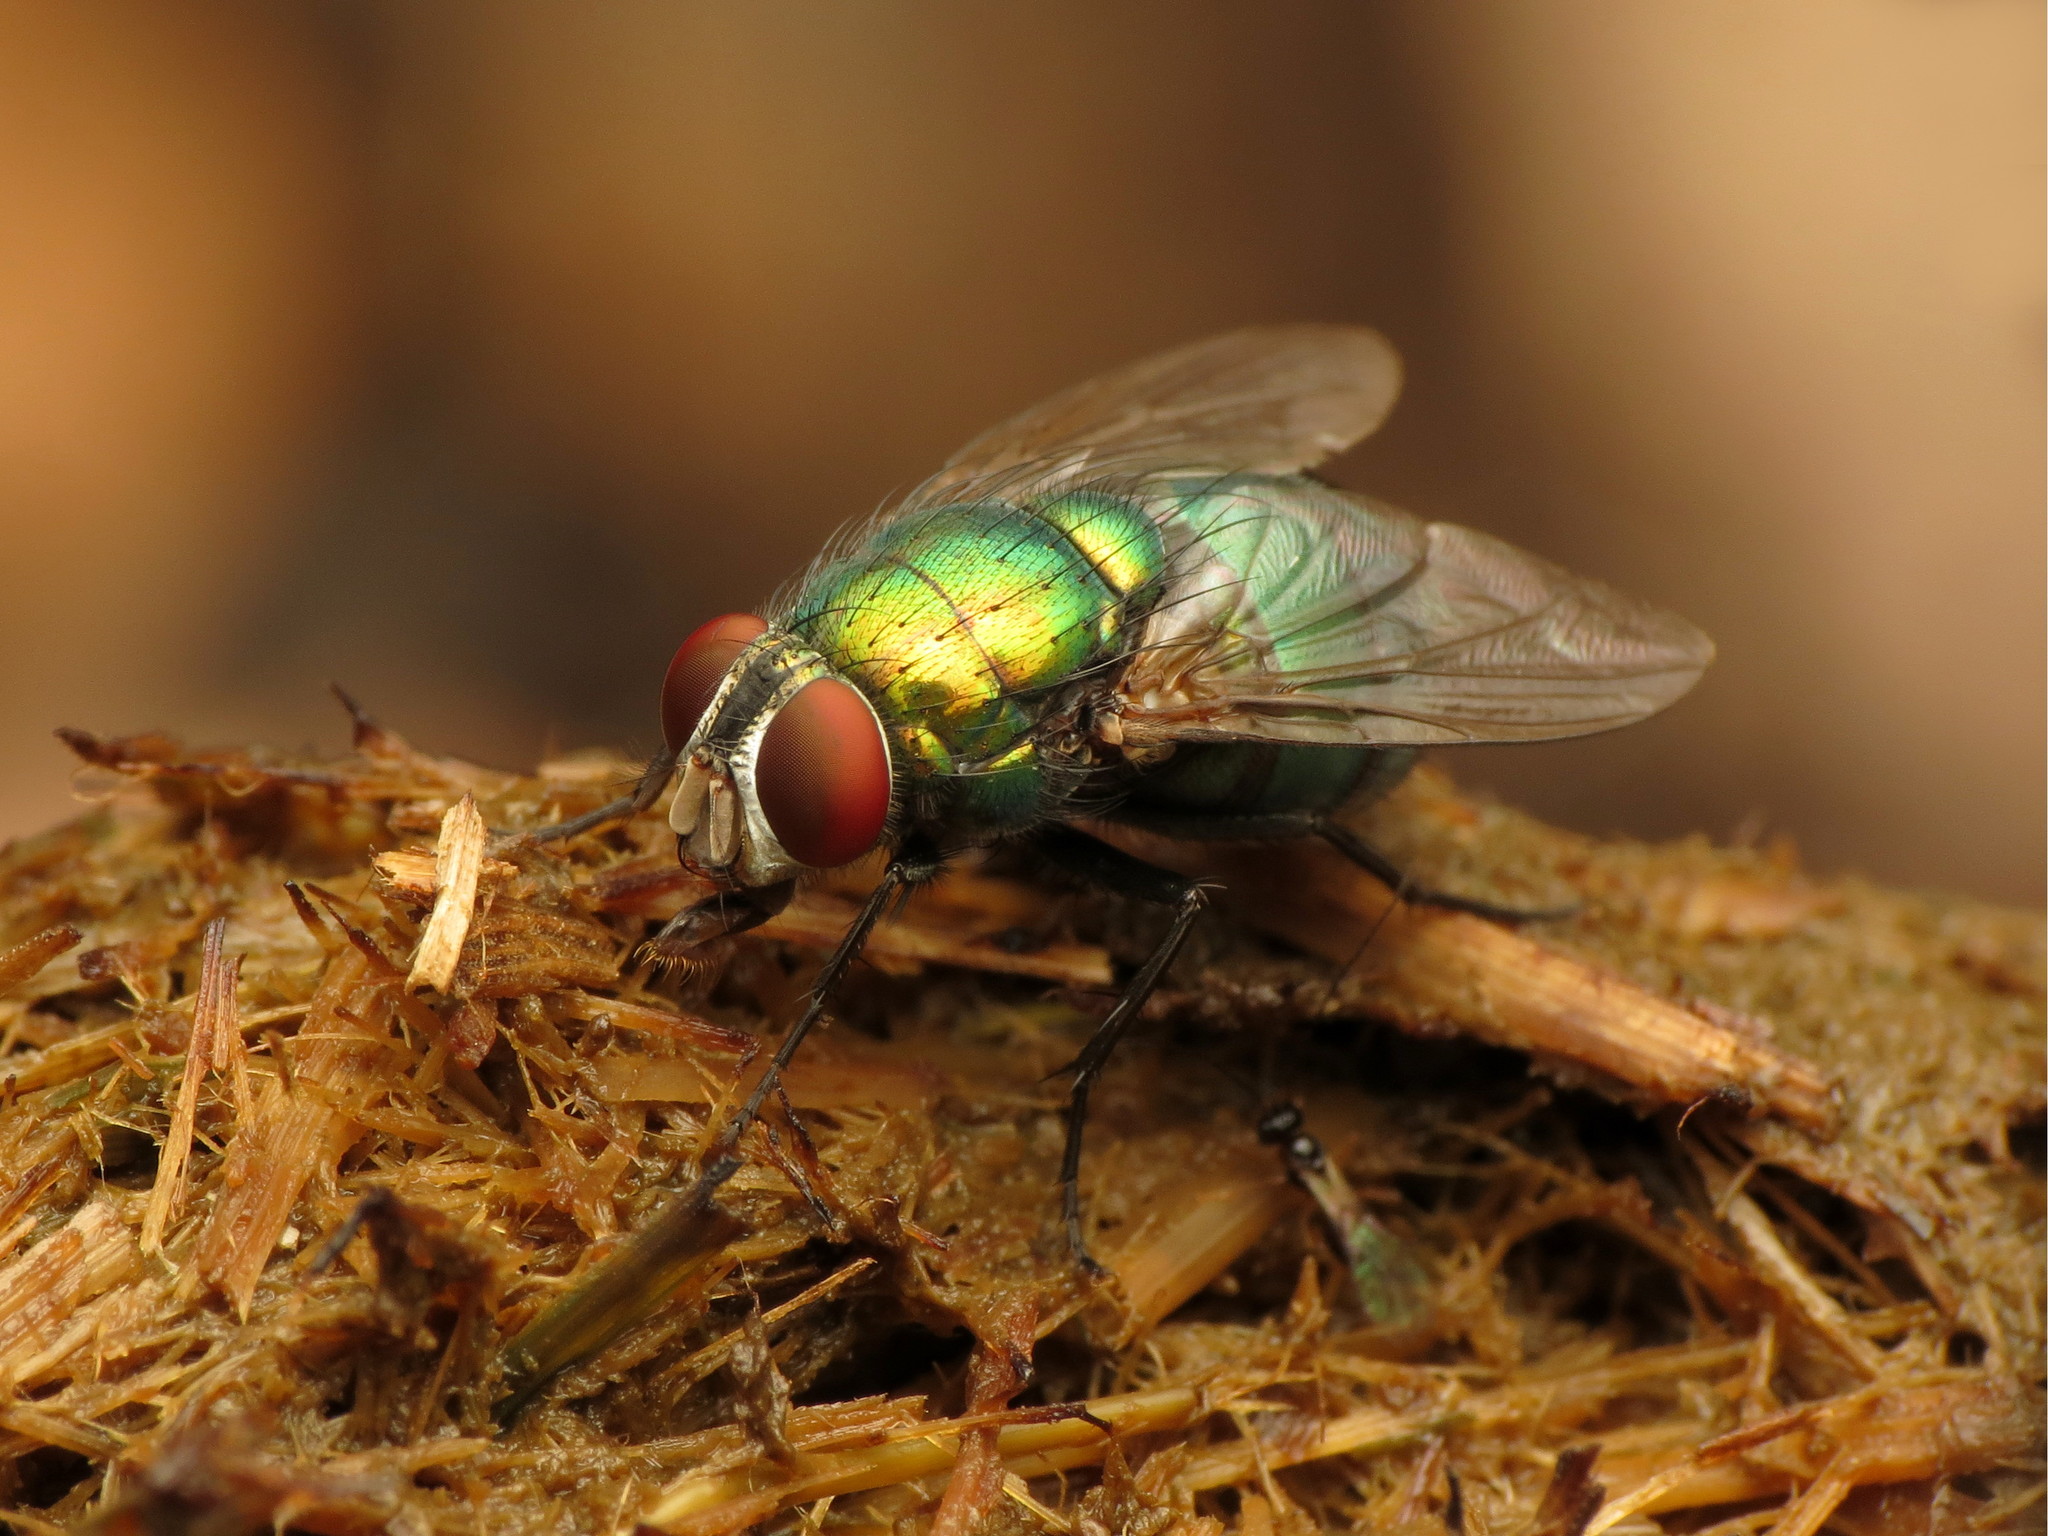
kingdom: Animalia
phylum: Arthropoda
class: Insecta
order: Diptera
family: Calliphoridae
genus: Lucilia
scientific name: Lucilia caeruleiviridis
